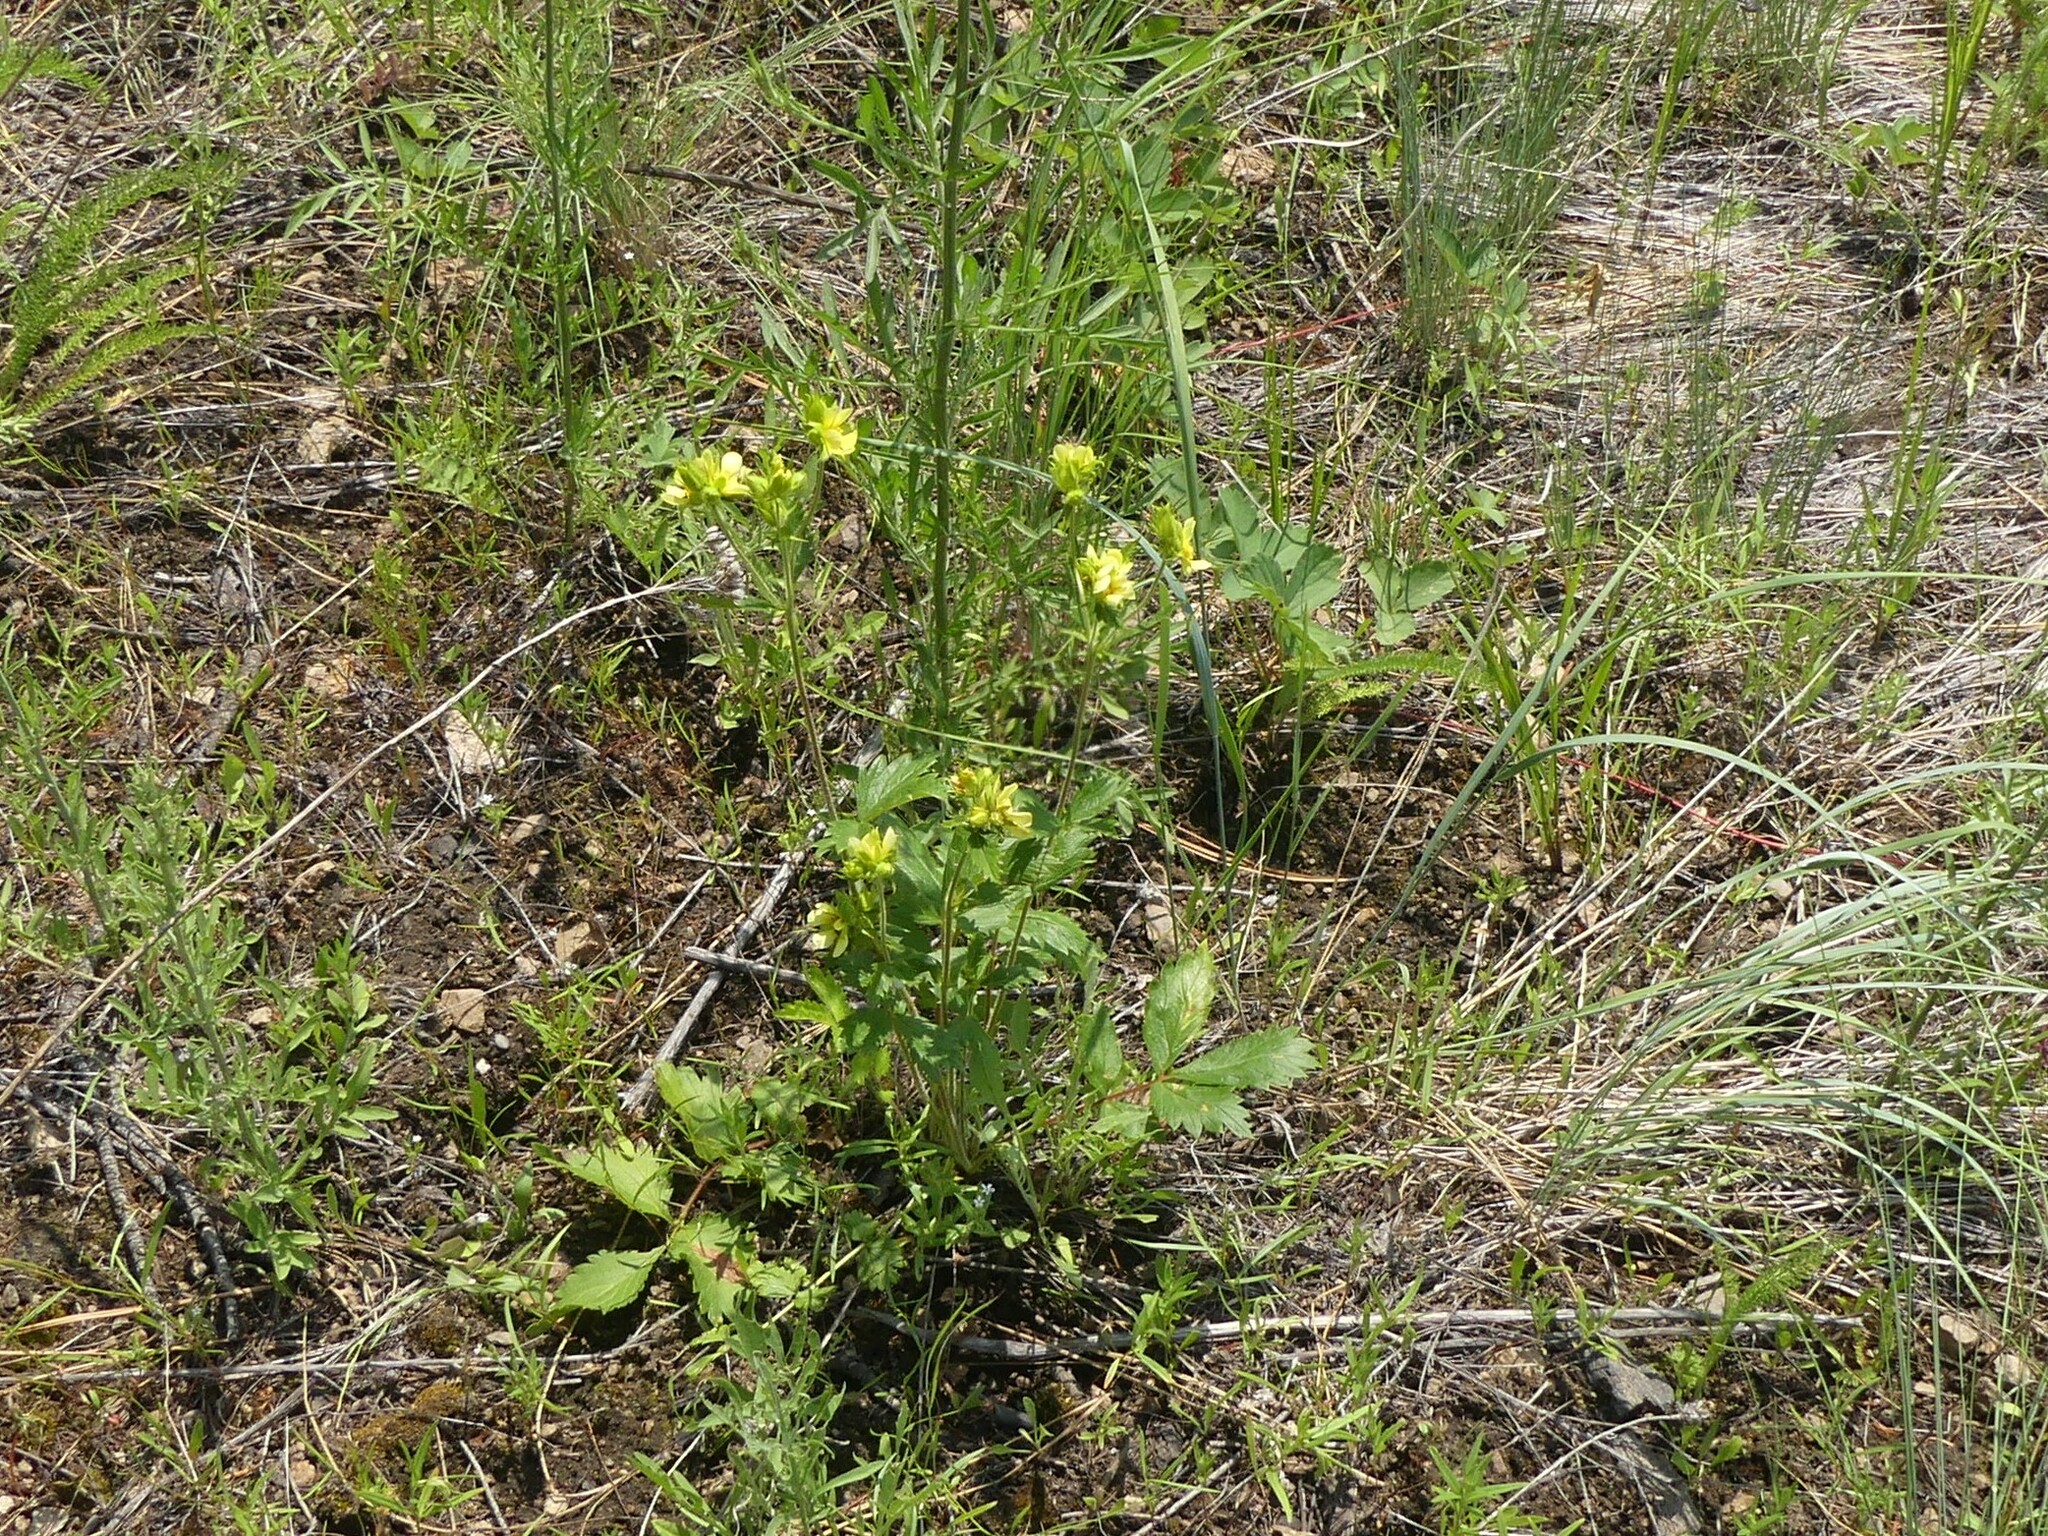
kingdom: Plantae
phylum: Tracheophyta
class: Magnoliopsida
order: Rosales
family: Rosaceae
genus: Drymocallis
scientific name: Drymocallis convallaria
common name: Cream cinquefoil
